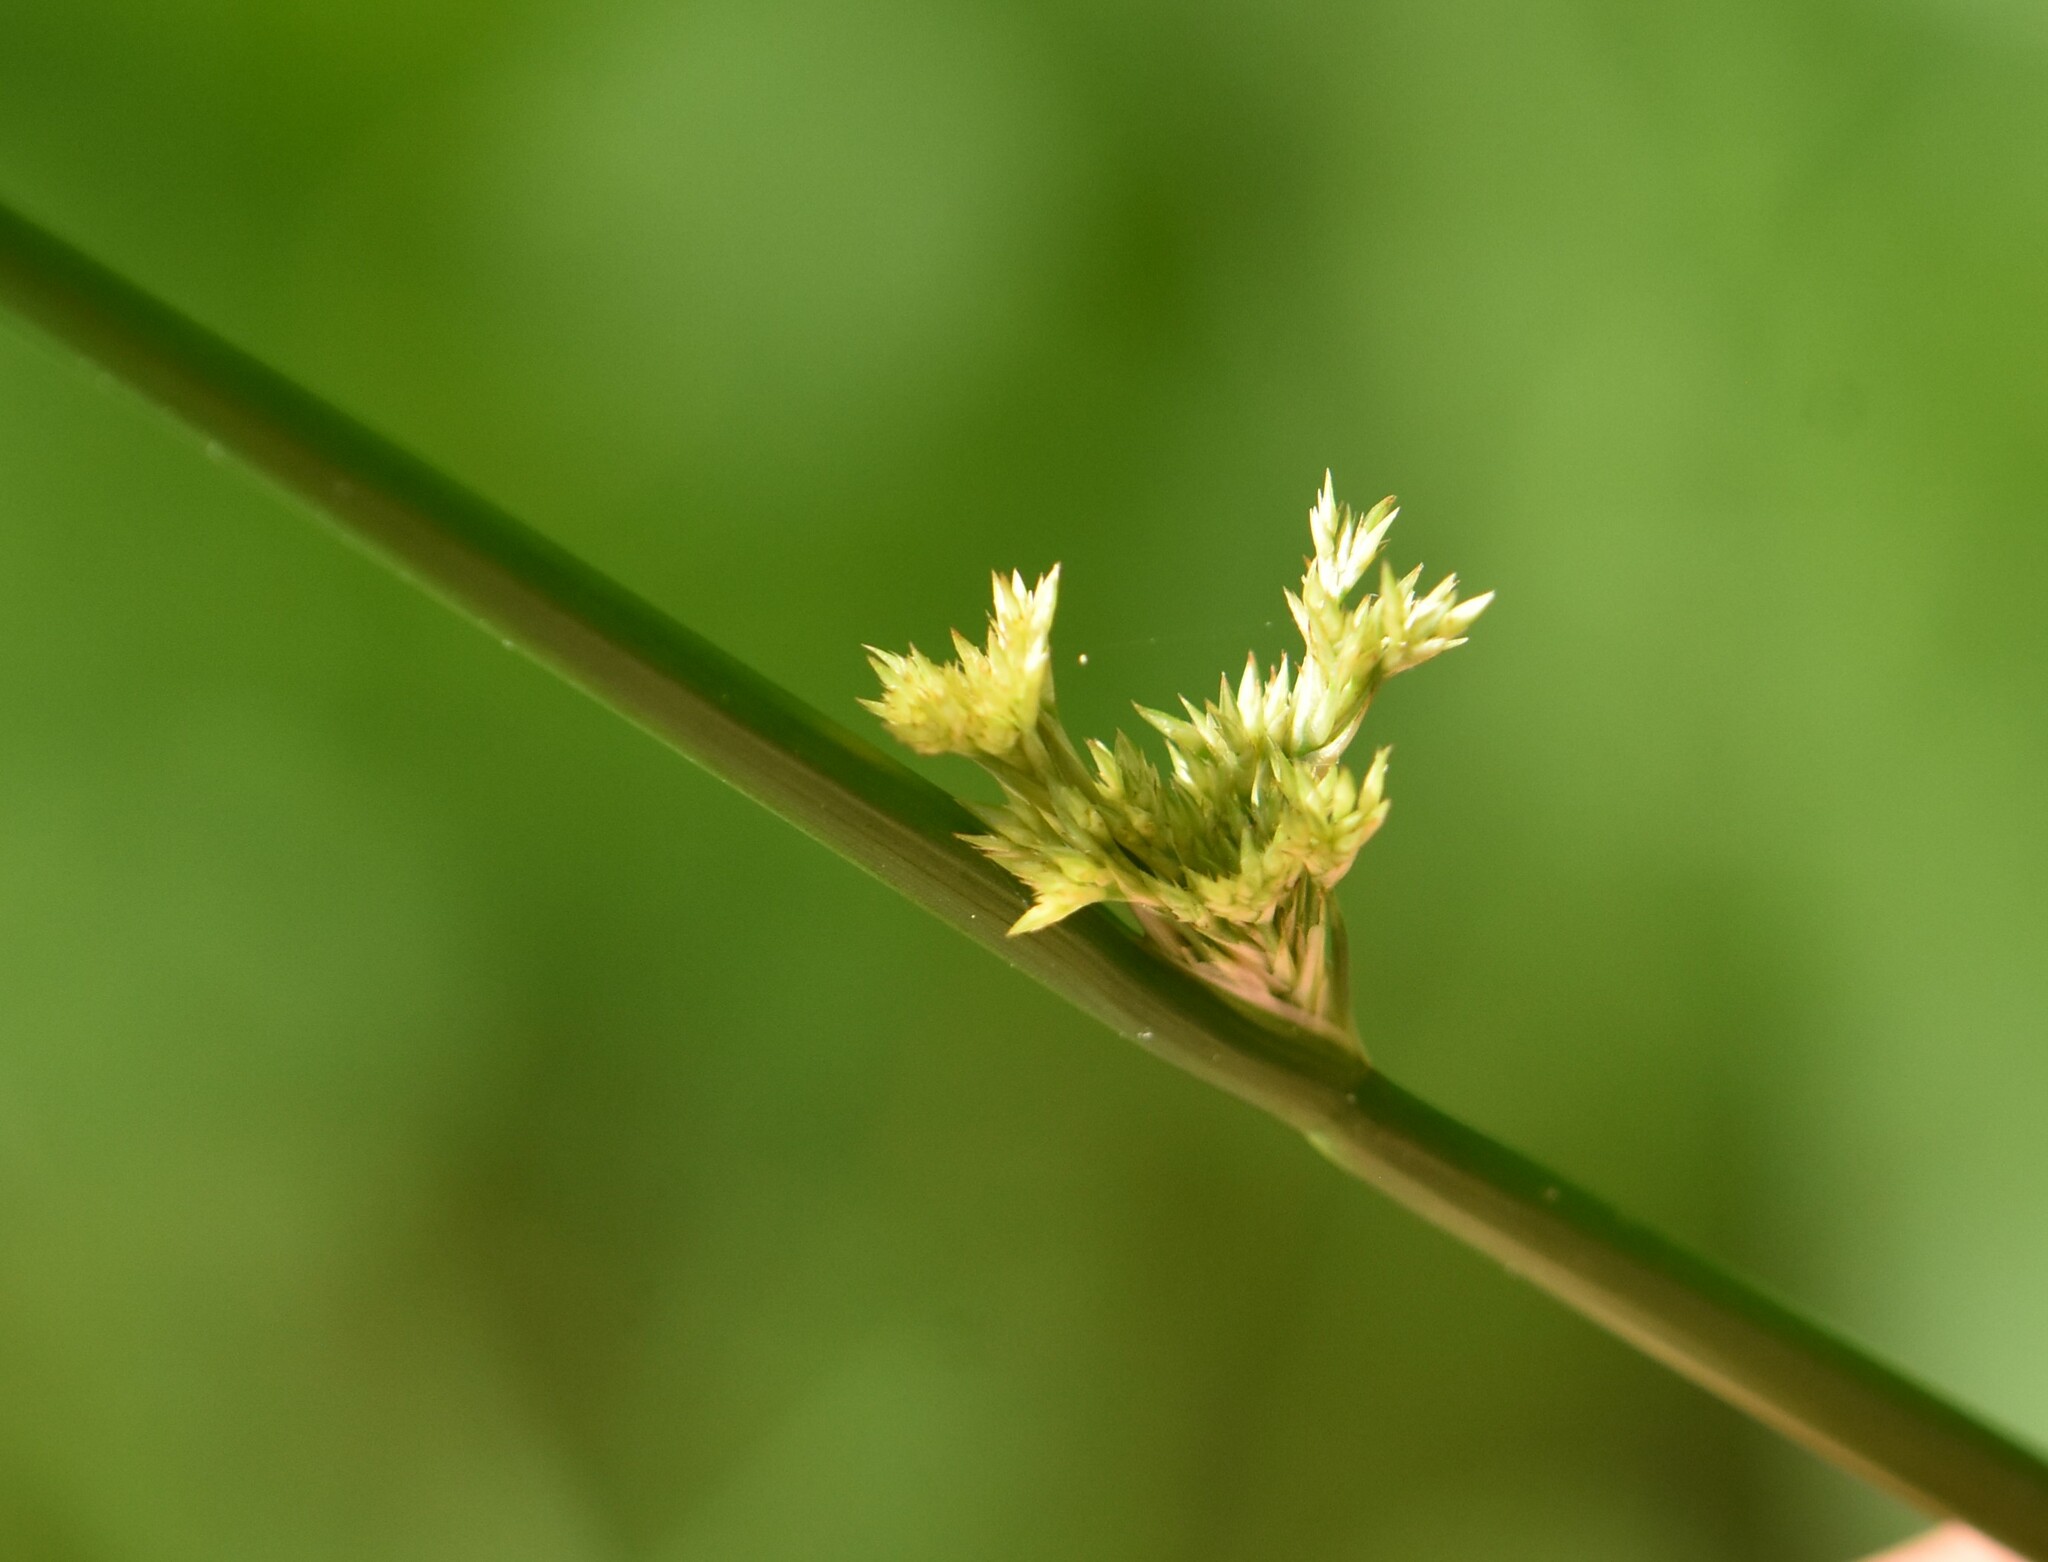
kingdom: Plantae
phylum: Tracheophyta
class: Liliopsida
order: Poales
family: Juncaceae
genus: Juncus
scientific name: Juncus effusus
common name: Soft rush
